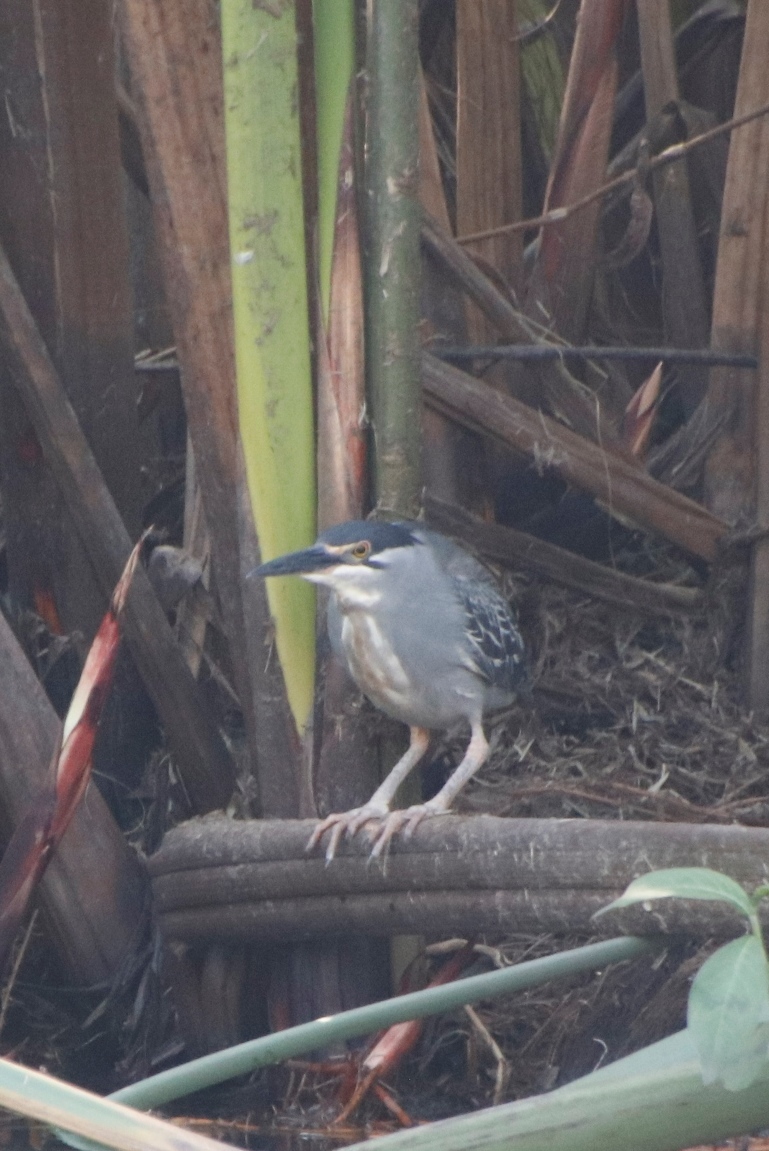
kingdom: Animalia
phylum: Chordata
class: Aves
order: Pelecaniformes
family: Ardeidae
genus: Butorides
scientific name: Butorides striata
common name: Striated heron
